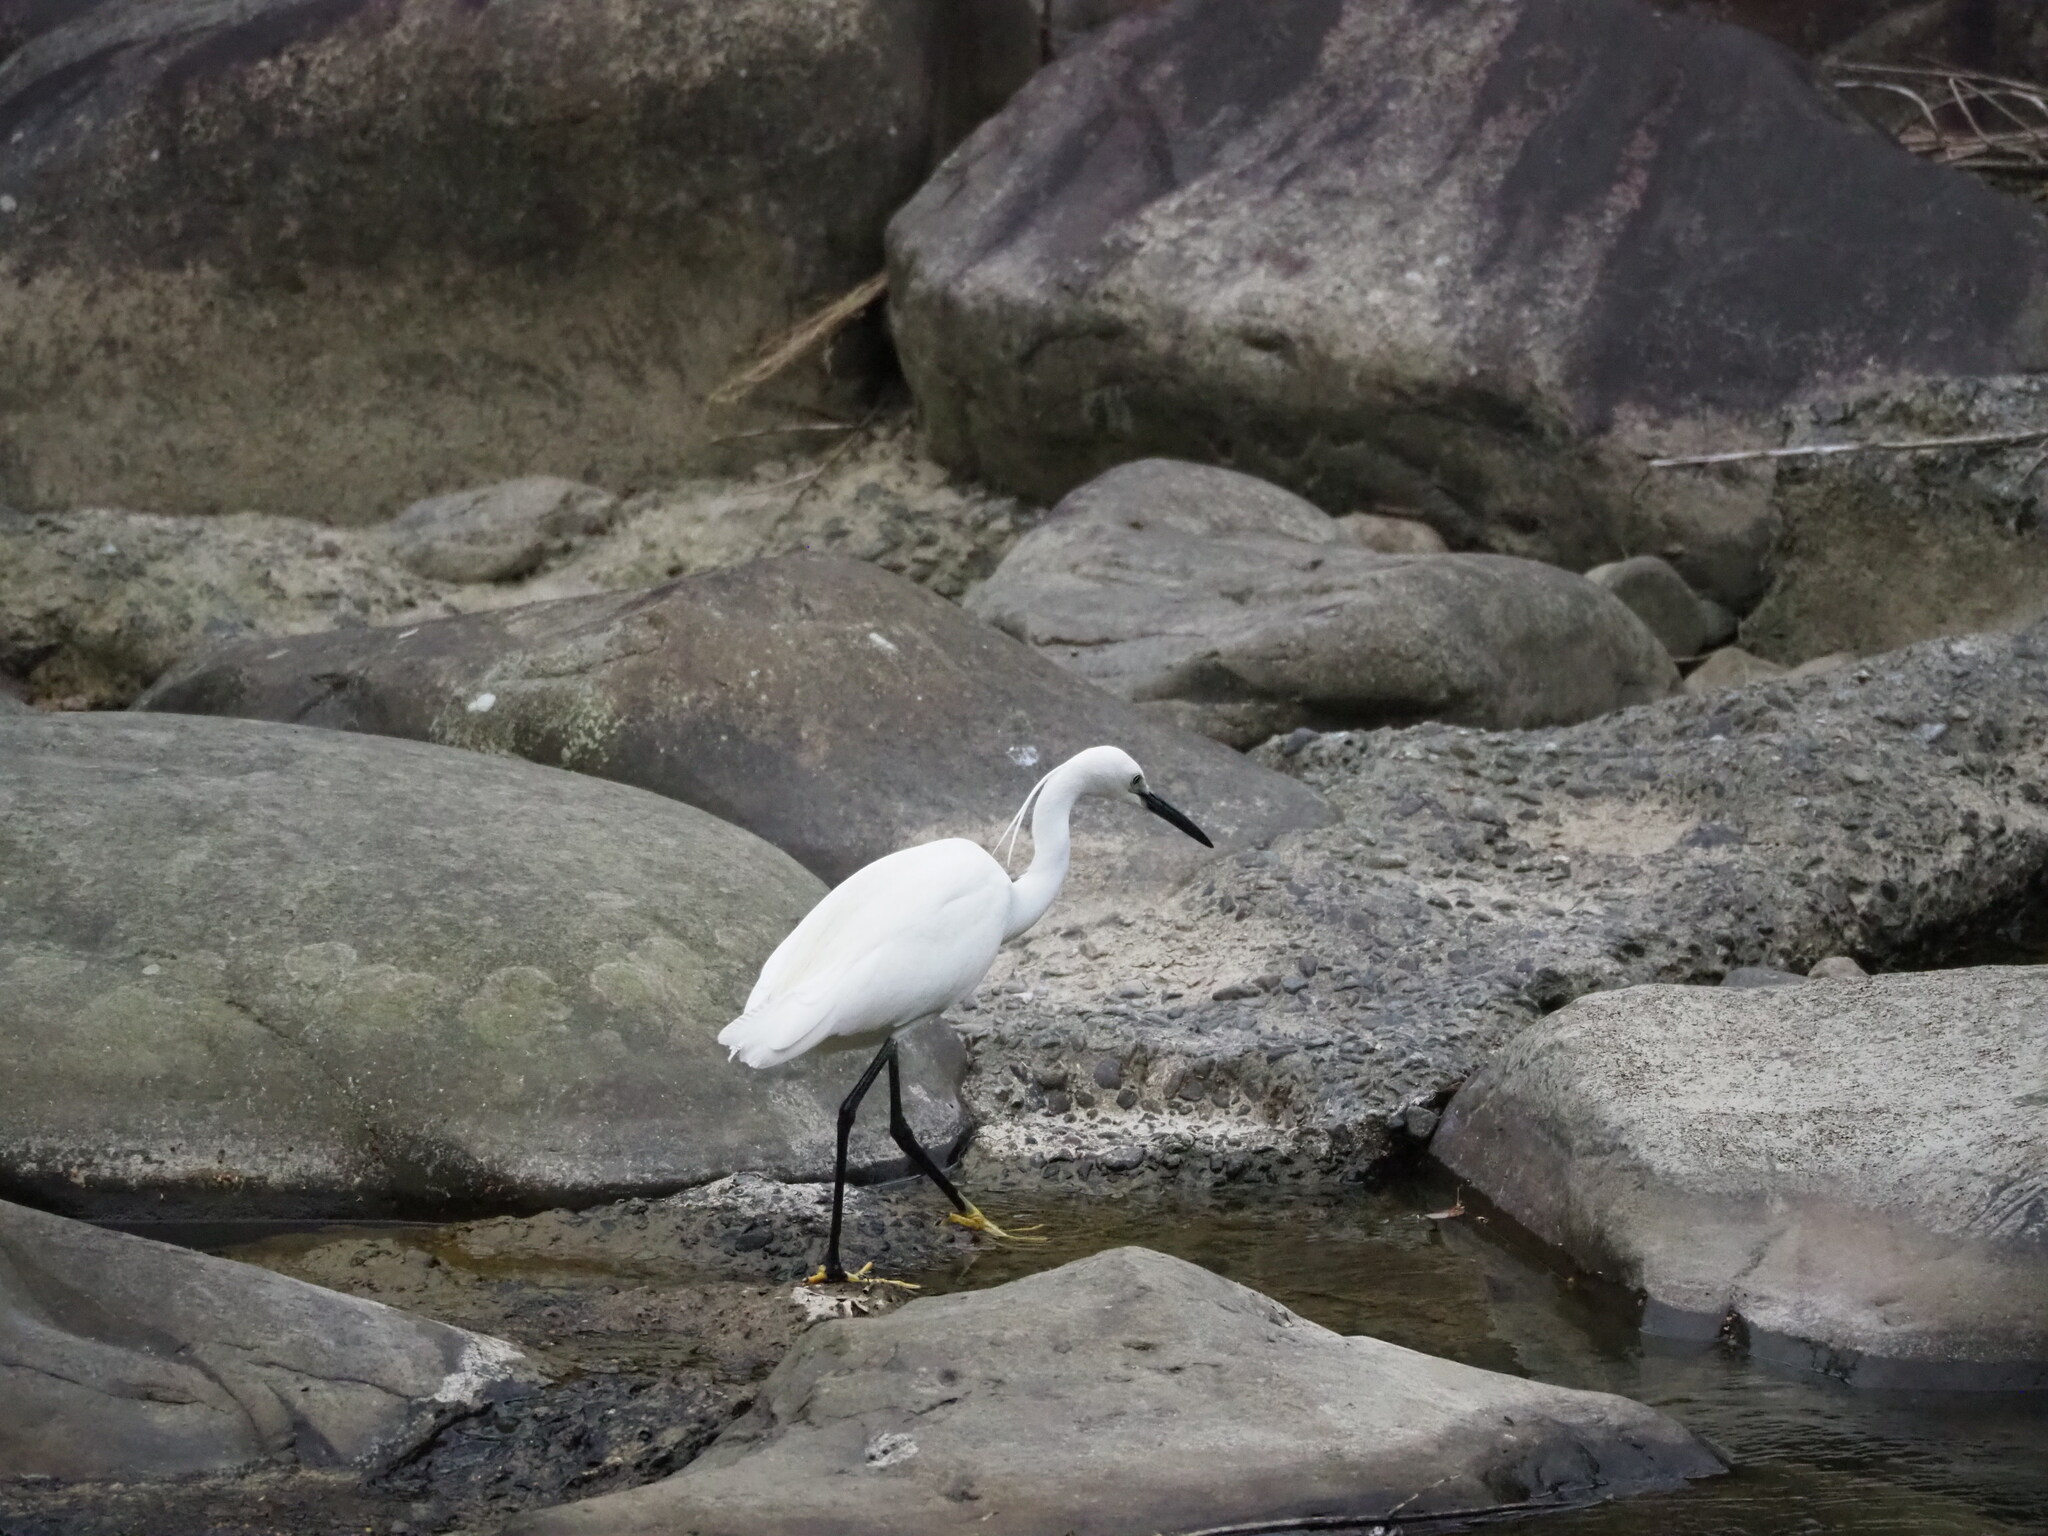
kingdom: Animalia
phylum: Chordata
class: Aves
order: Pelecaniformes
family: Ardeidae
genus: Egretta
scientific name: Egretta garzetta
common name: Little egret
